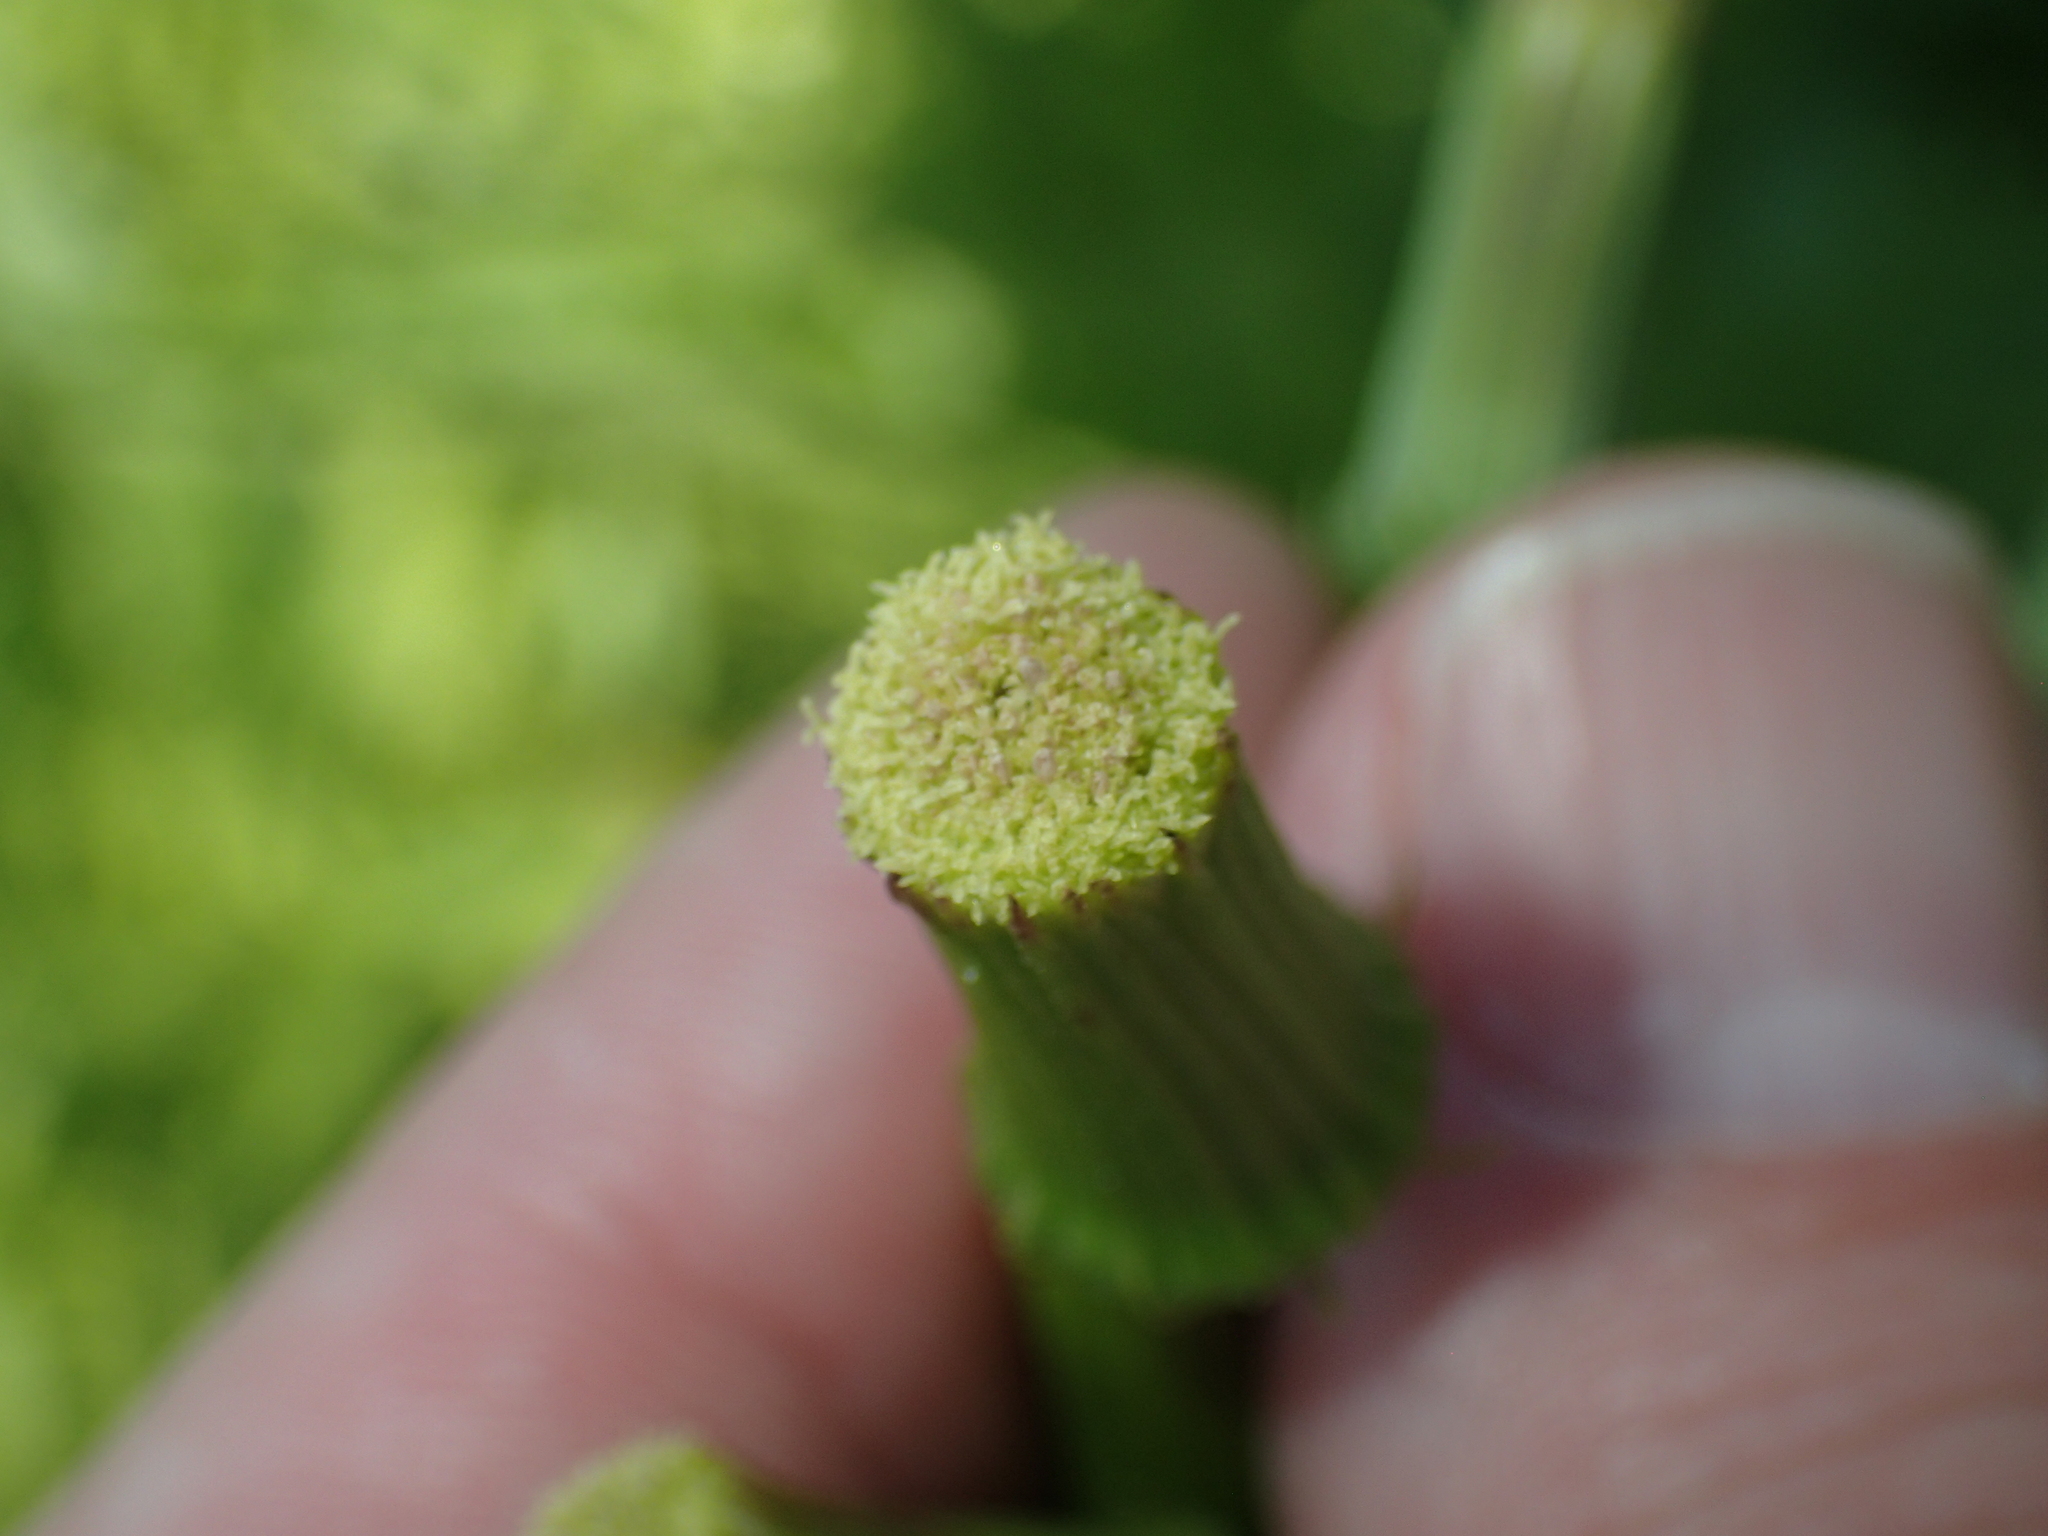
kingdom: Plantae
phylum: Tracheophyta
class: Magnoliopsida
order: Asterales
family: Asteraceae
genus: Erechtites
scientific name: Erechtites hieraciifolius
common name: American burnweed
